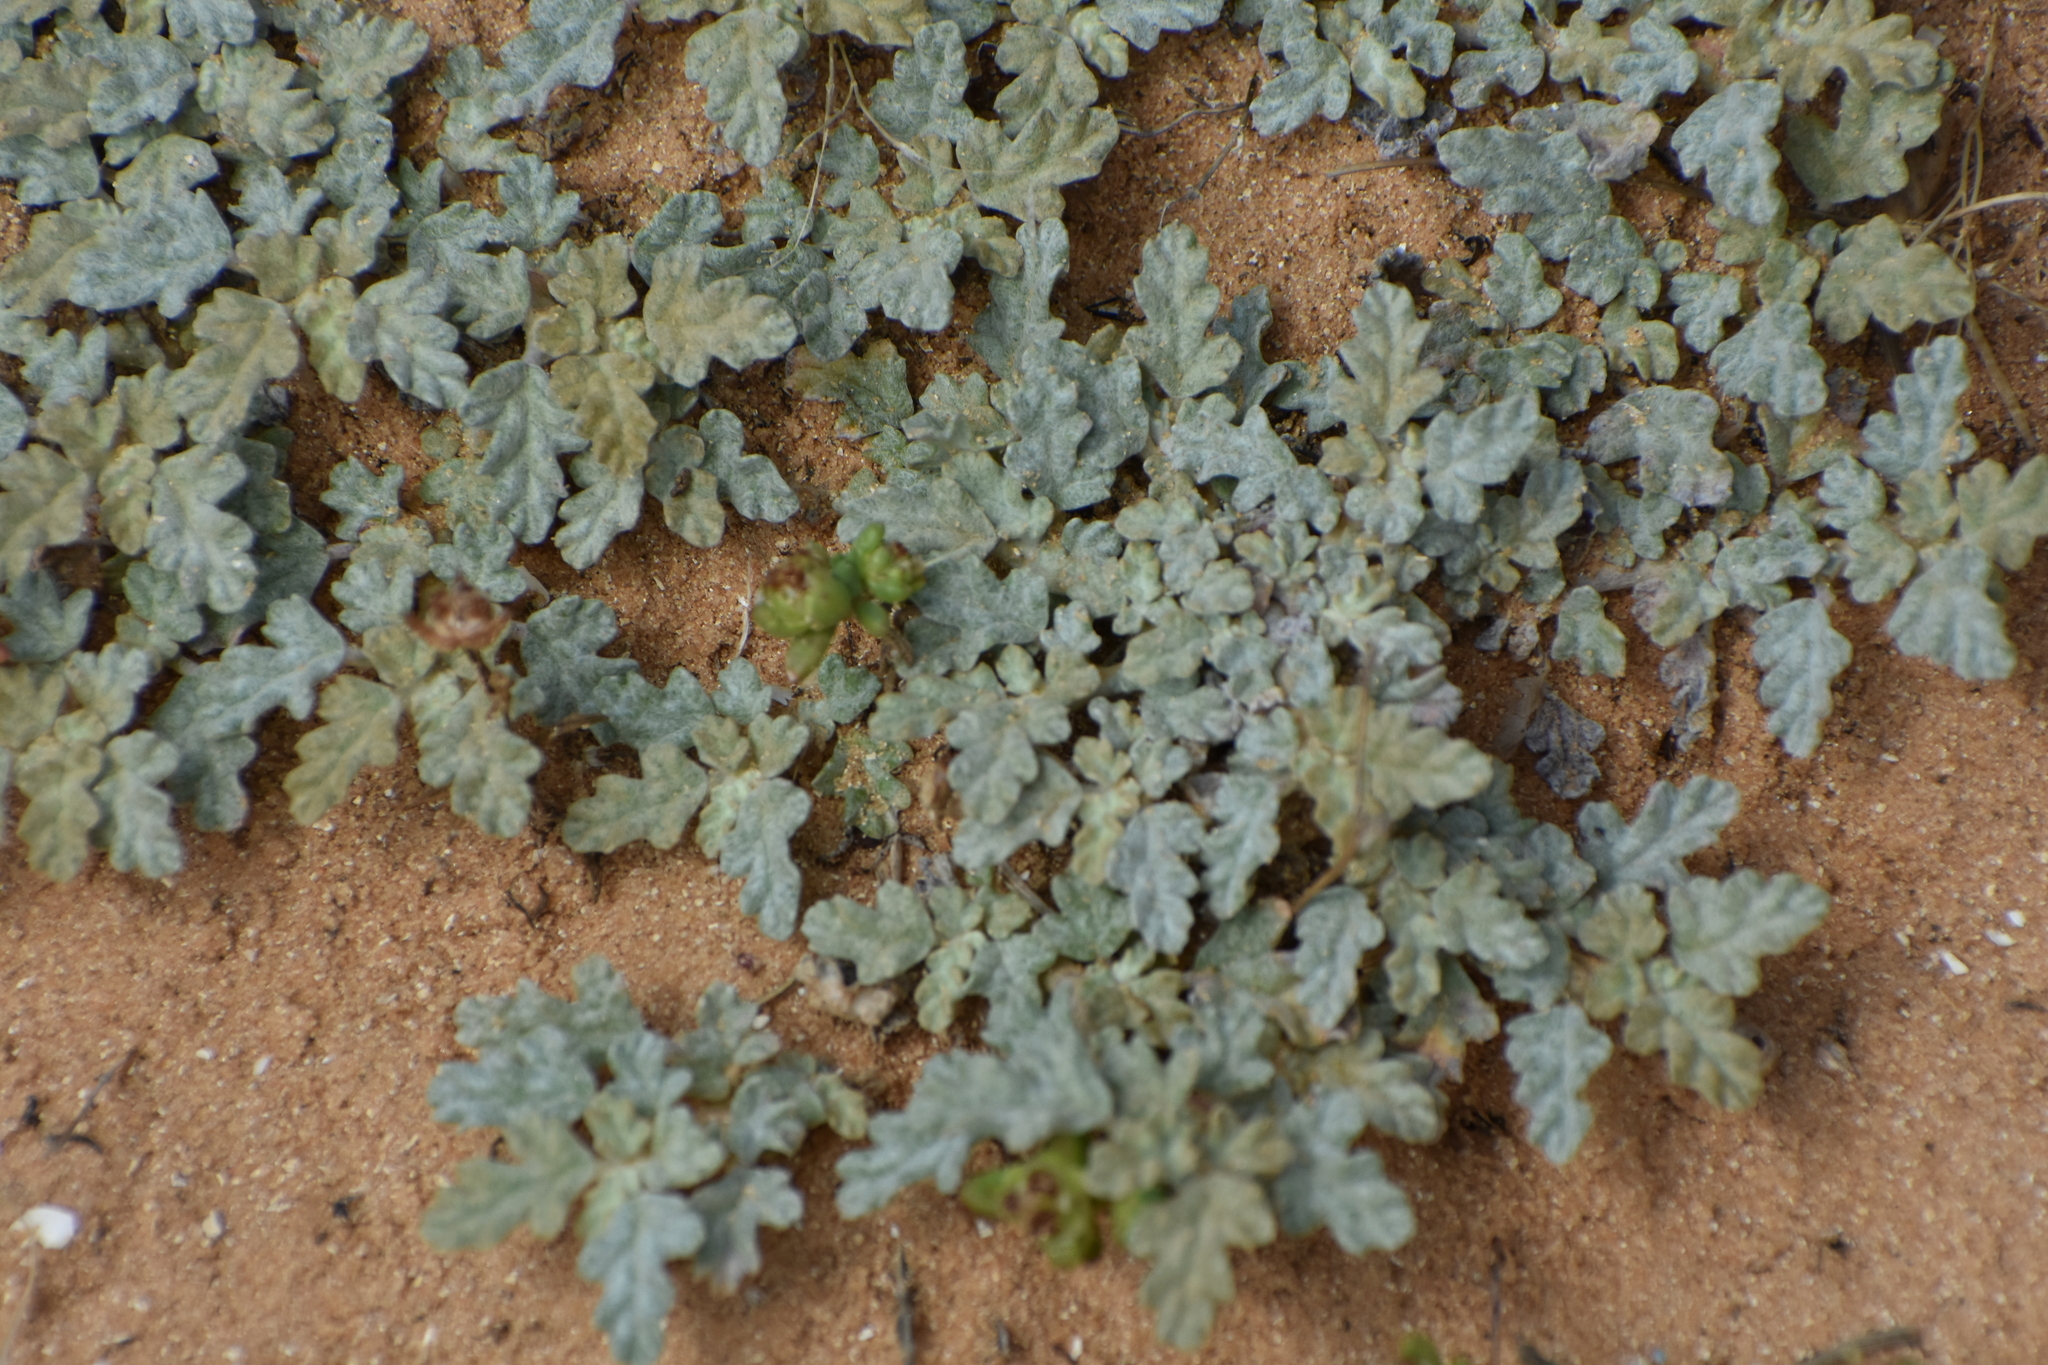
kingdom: Plantae
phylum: Tracheophyta
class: Magnoliopsida
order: Malvales
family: Neuradaceae
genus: Neurada
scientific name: Neurada procumbens
